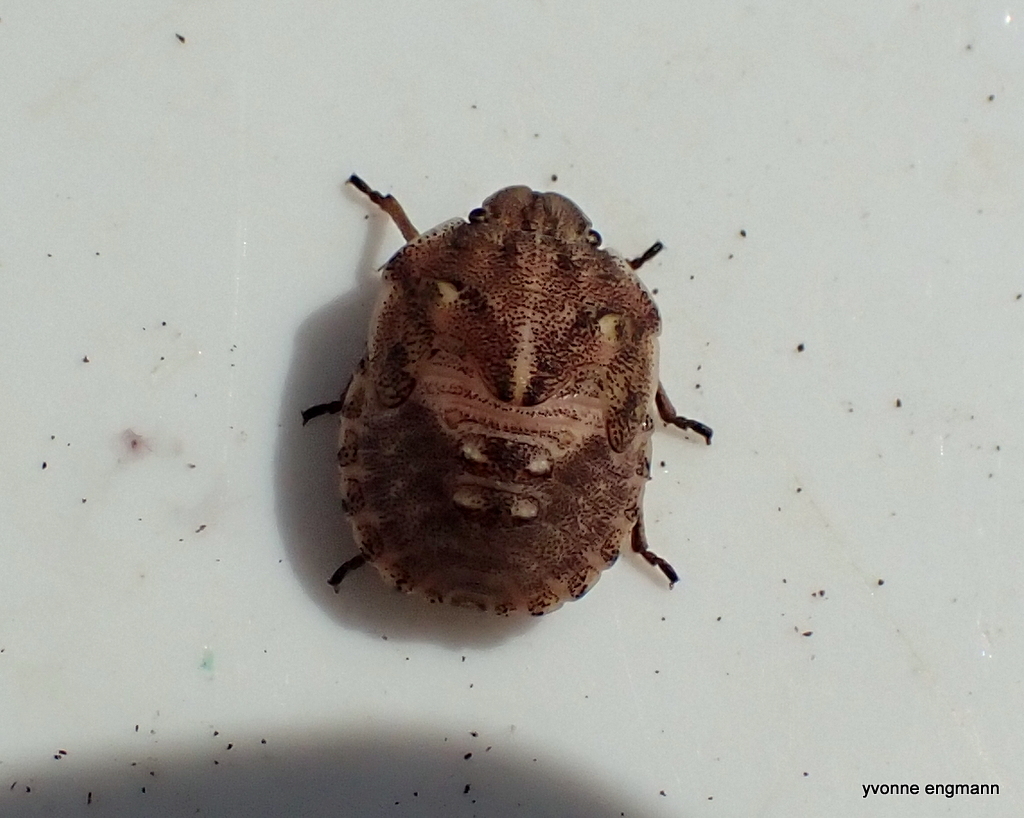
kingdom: Animalia
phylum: Arthropoda
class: Insecta
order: Hemiptera
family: Scutelleridae
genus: Eurygaster
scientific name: Eurygaster testudinaria
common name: Tortoise bug
